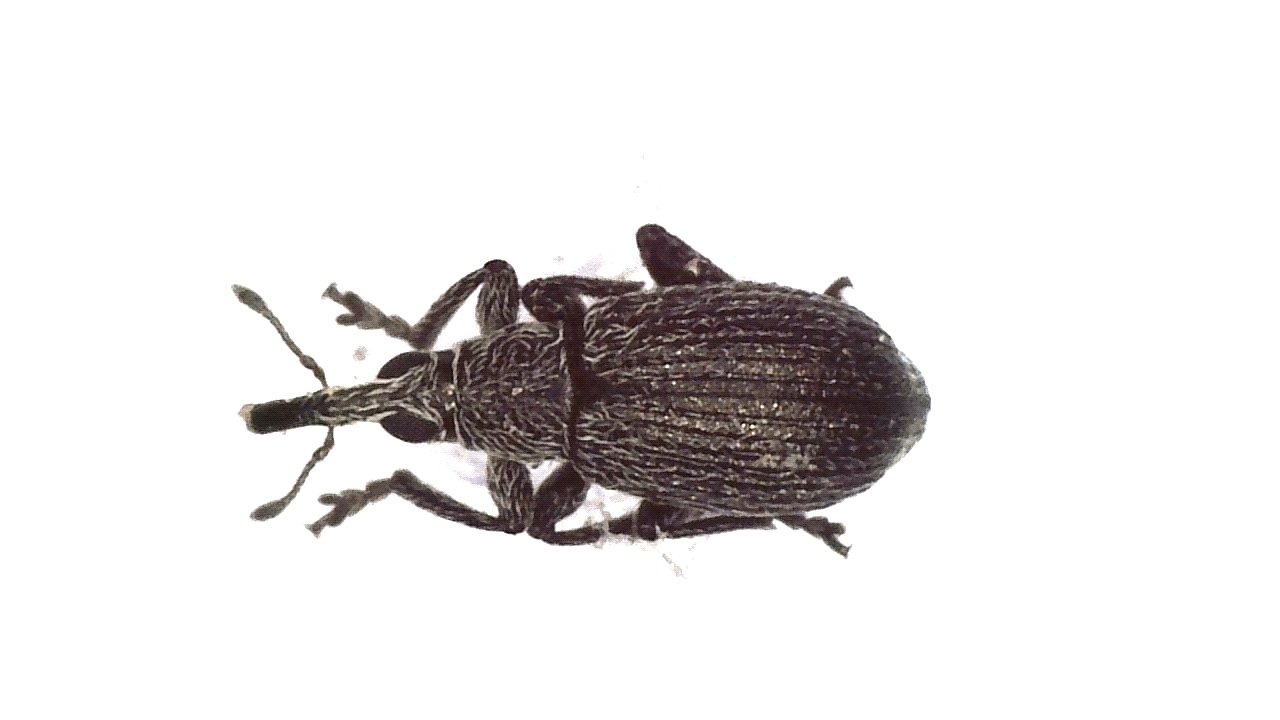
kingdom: Animalia
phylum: Arthropoda
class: Insecta
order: Coleoptera
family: Brentidae
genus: Betulapion
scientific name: Betulapion simile
